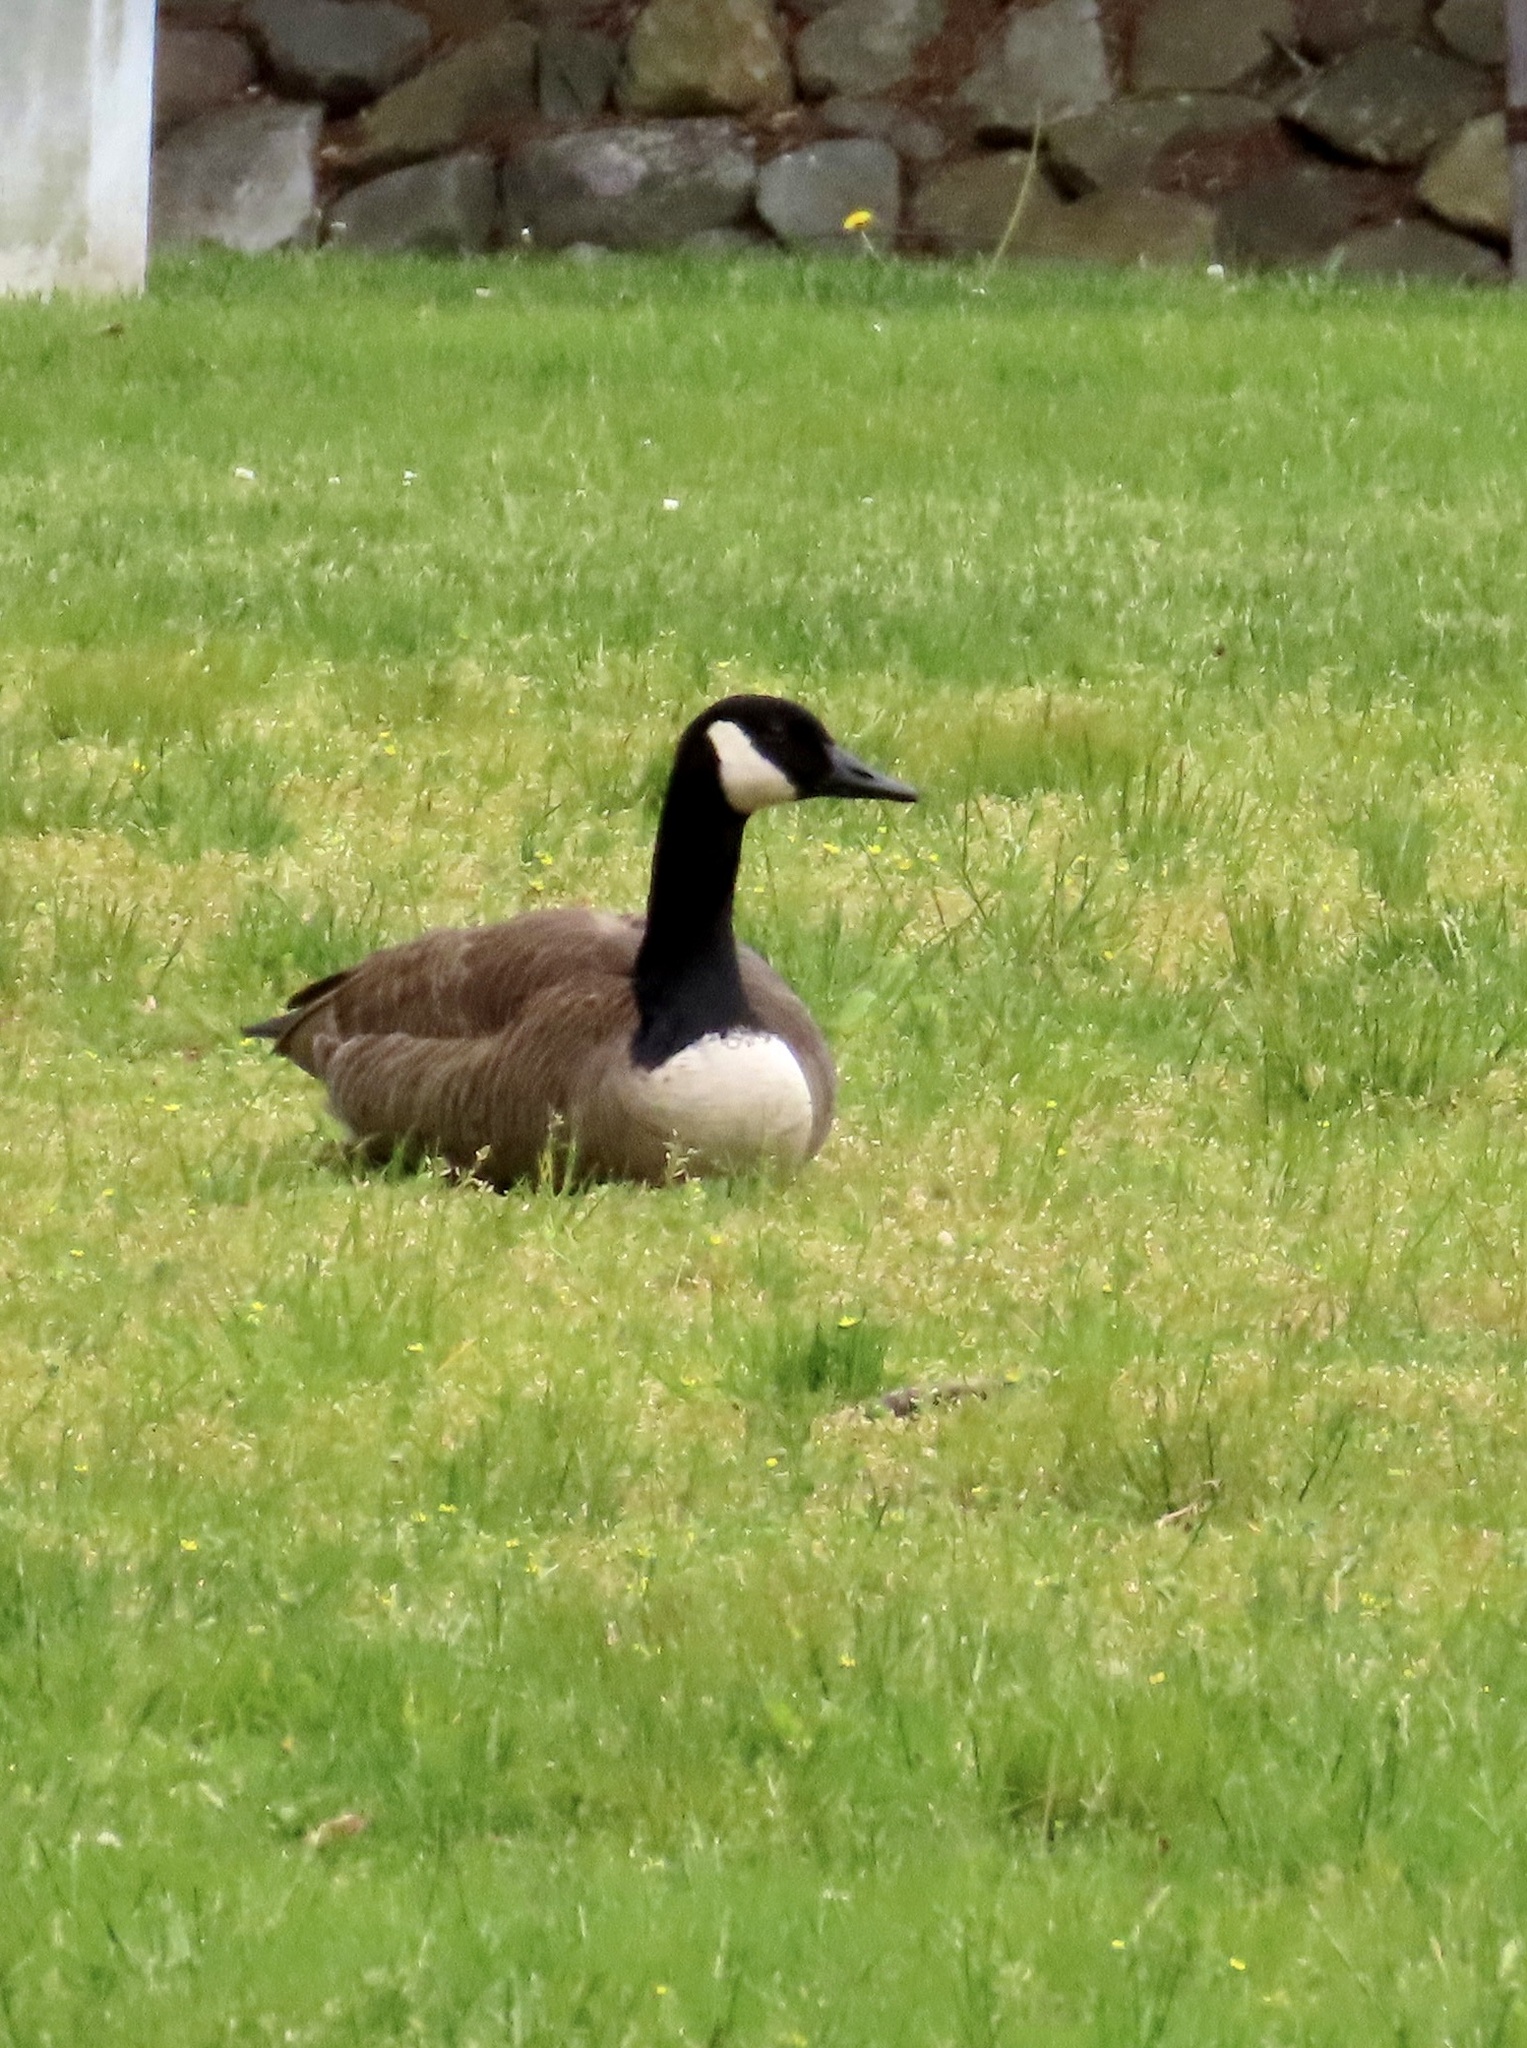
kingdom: Animalia
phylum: Chordata
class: Aves
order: Anseriformes
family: Anatidae
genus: Branta
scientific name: Branta canadensis
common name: Canada goose
